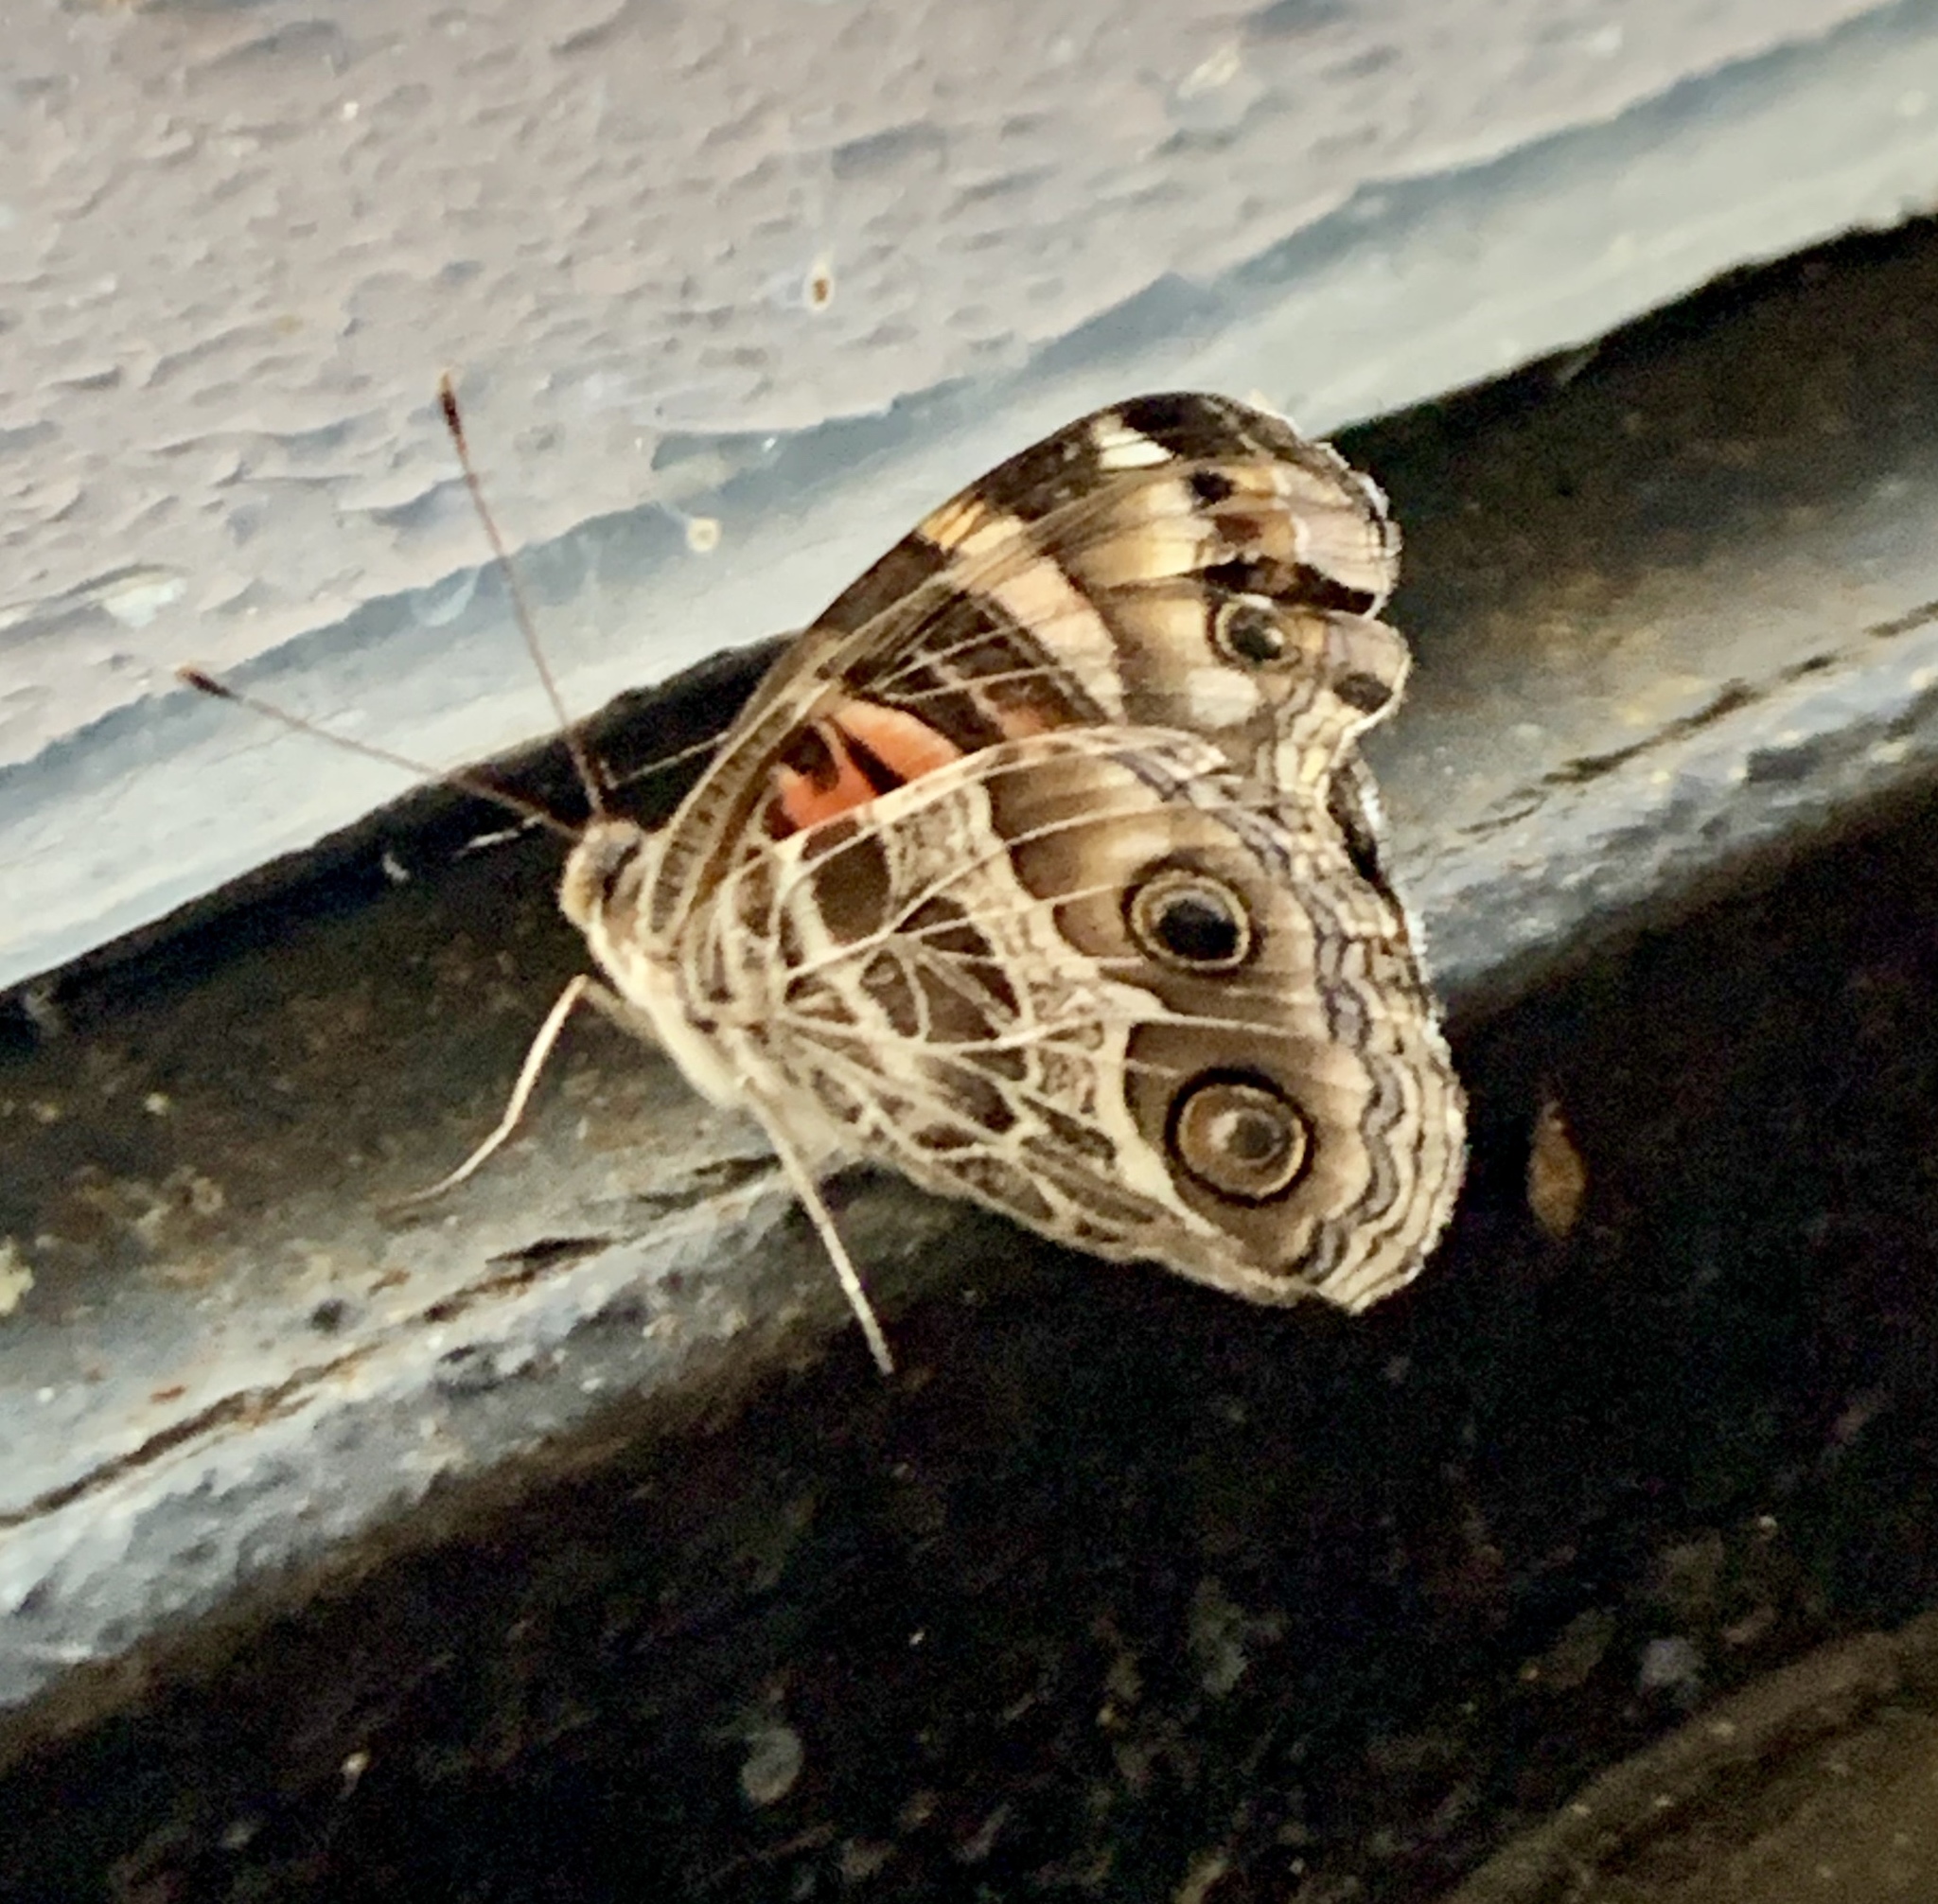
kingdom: Animalia
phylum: Arthropoda
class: Insecta
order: Lepidoptera
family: Nymphalidae
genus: Vanessa
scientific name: Vanessa virginiensis
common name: American lady
